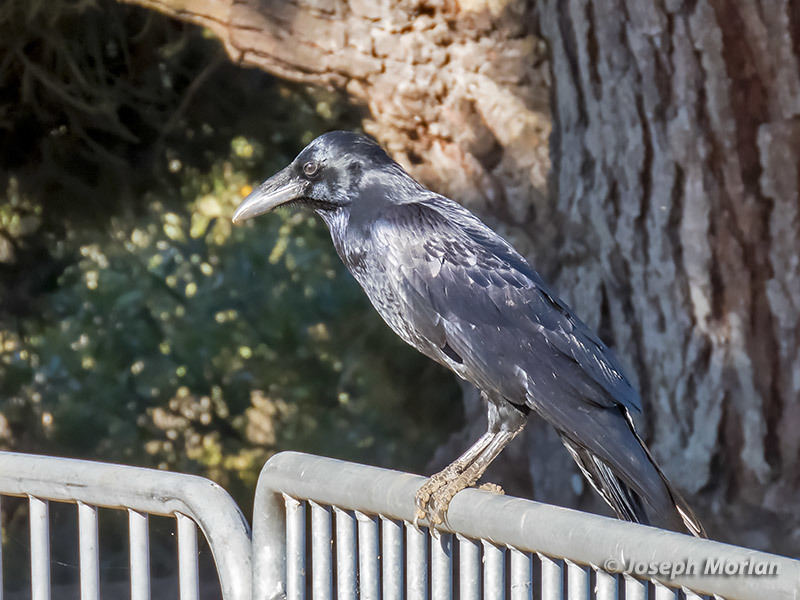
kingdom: Animalia
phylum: Chordata
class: Aves
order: Passeriformes
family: Corvidae
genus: Corvus
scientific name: Corvus corax
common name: Common raven
